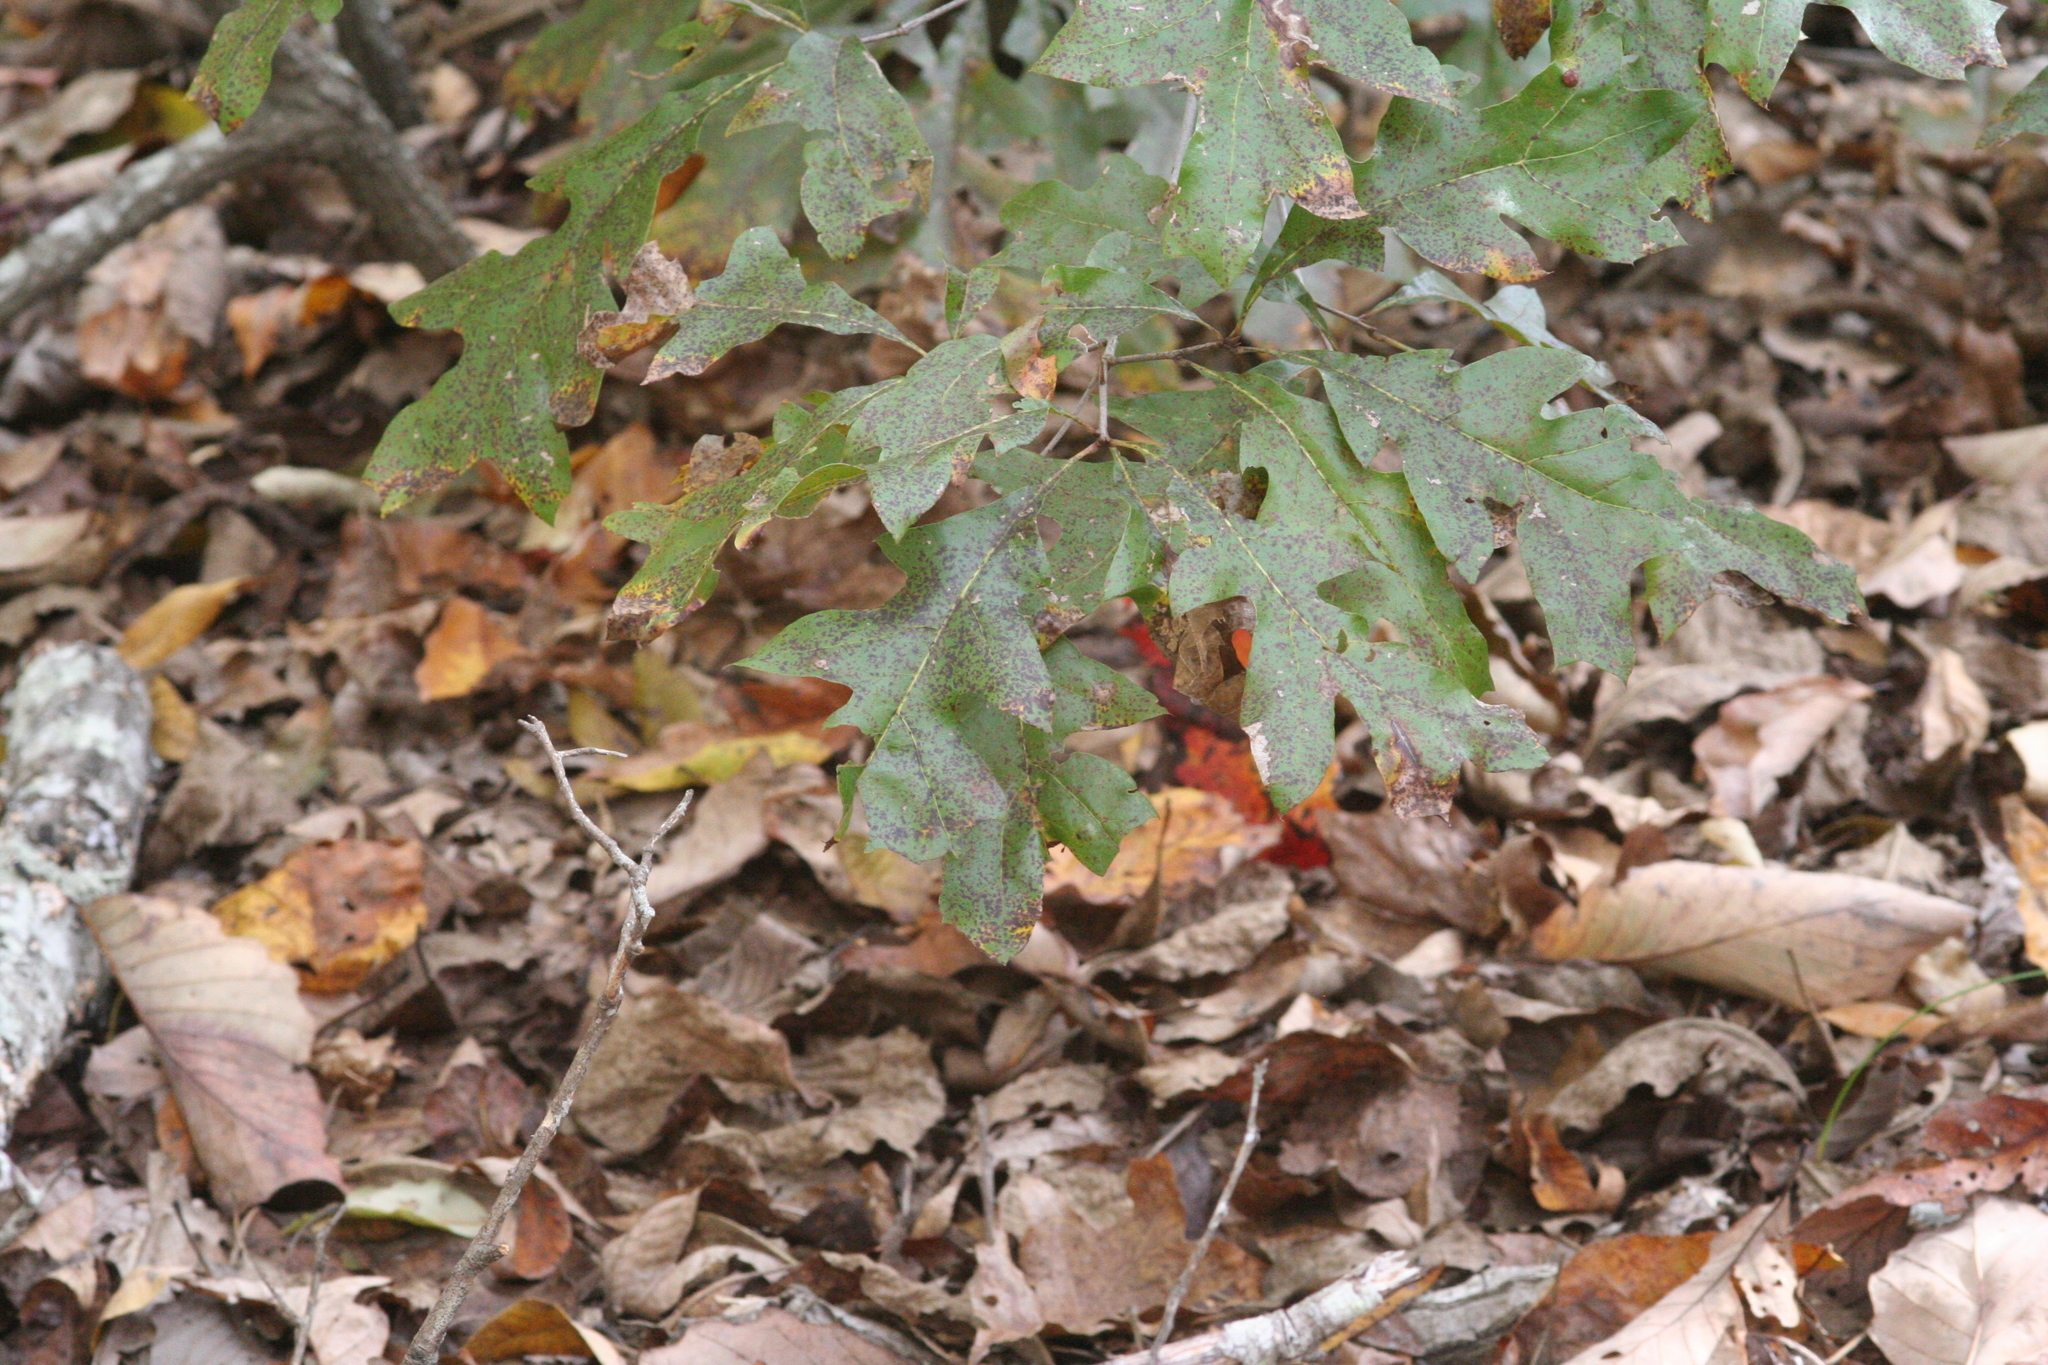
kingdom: Plantae
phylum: Tracheophyta
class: Magnoliopsida
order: Fagales
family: Fagaceae
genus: Quercus
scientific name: Quercus georgiana
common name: Georgia oak
